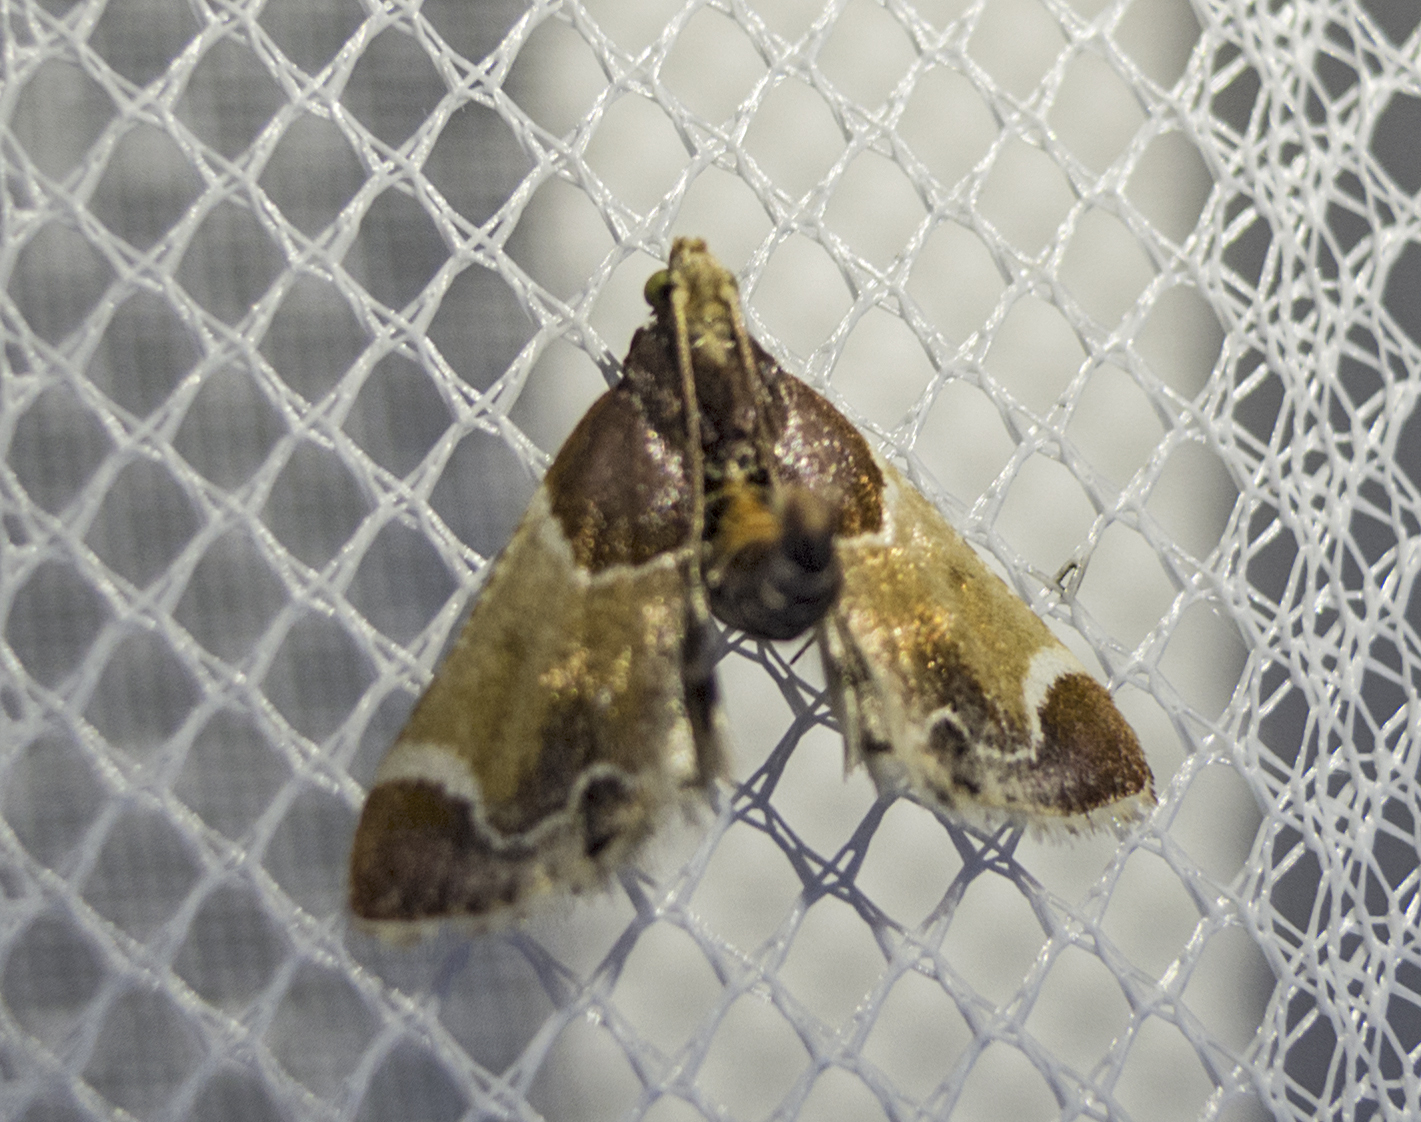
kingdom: Animalia
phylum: Arthropoda
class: Insecta
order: Lepidoptera
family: Pyralidae
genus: Pyralis
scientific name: Pyralis farinalis
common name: Meal moth
